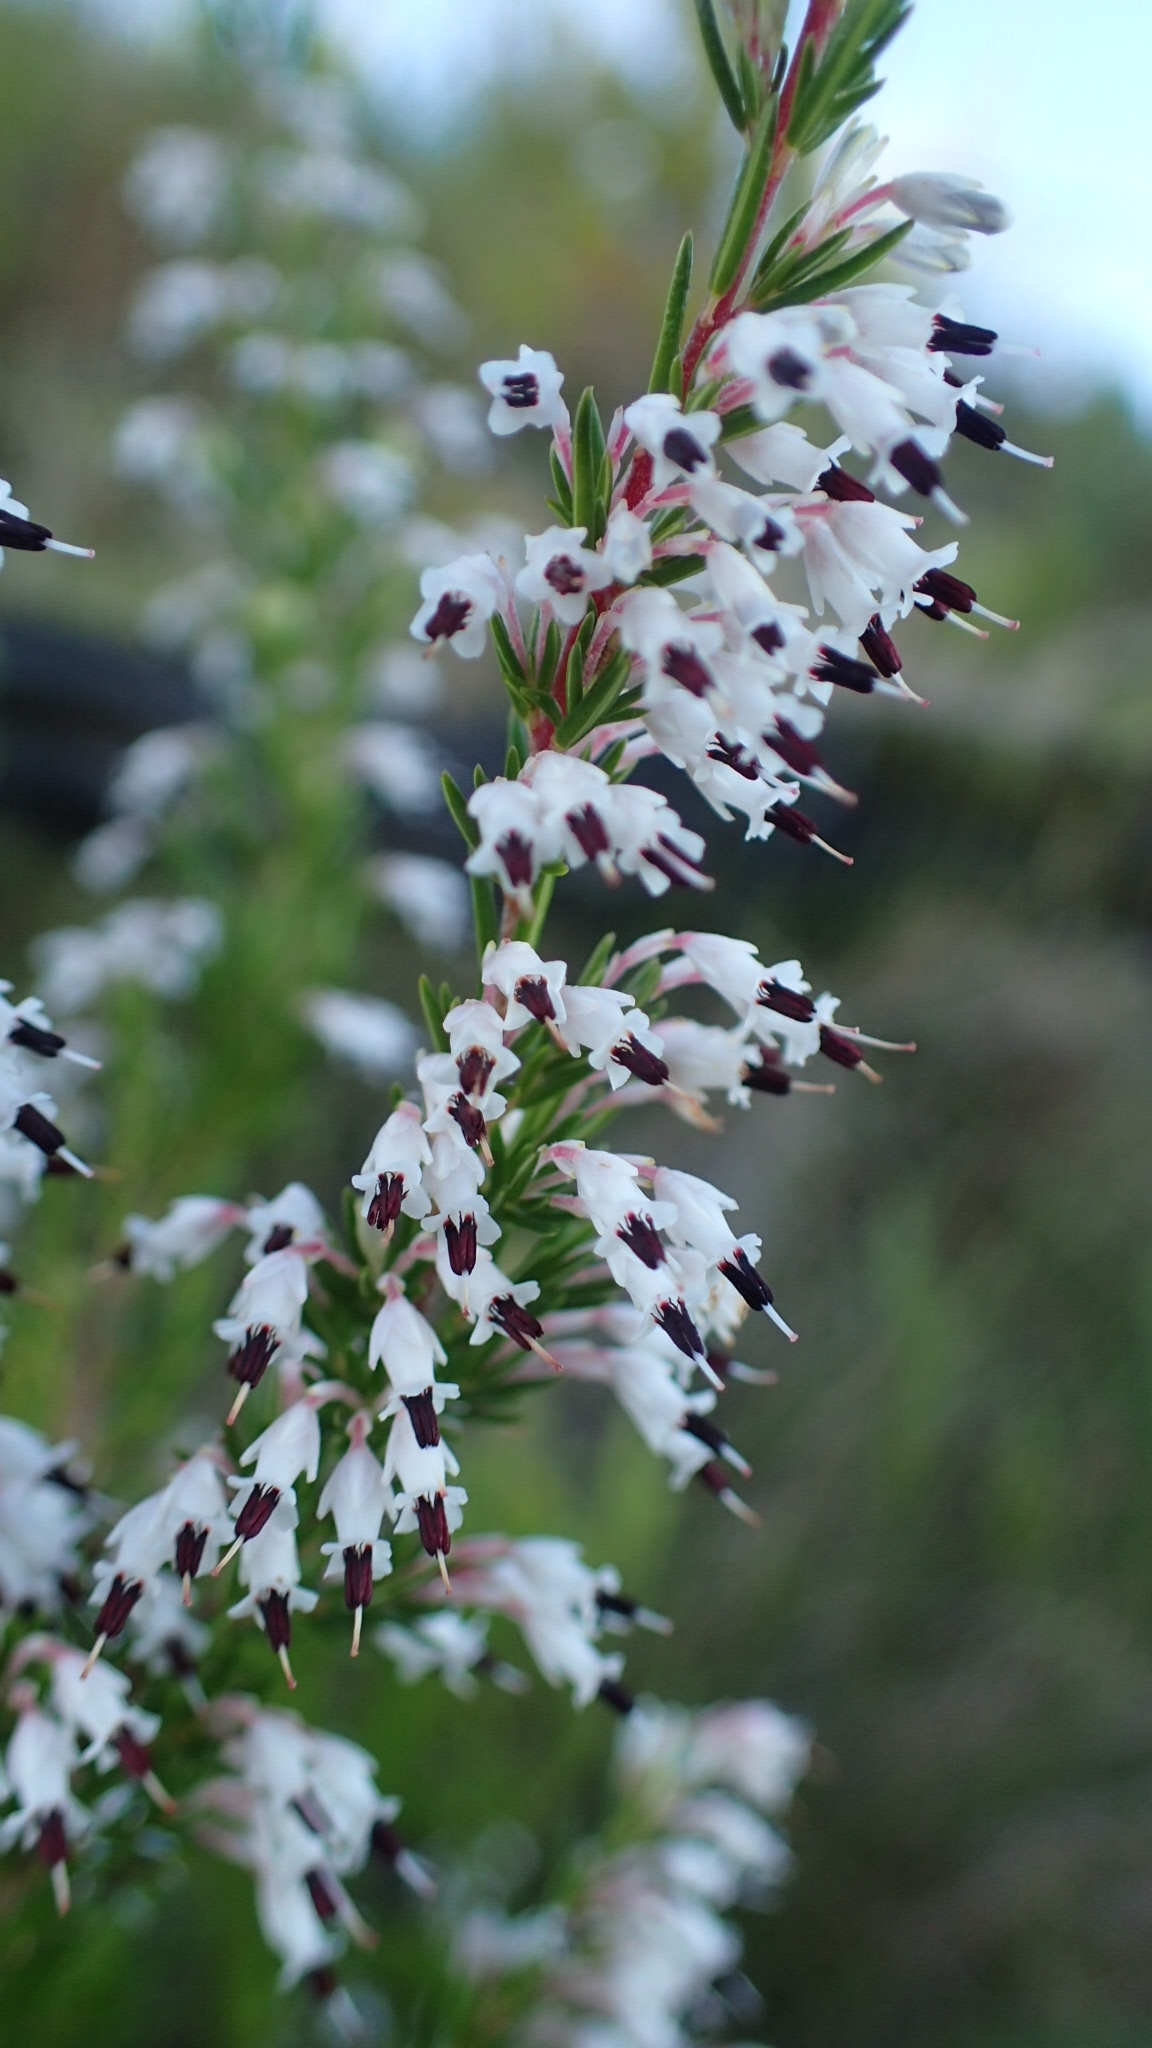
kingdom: Plantae
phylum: Tracheophyta
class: Magnoliopsida
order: Ericales
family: Ericaceae
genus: Erica
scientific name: Erica fuscescens
